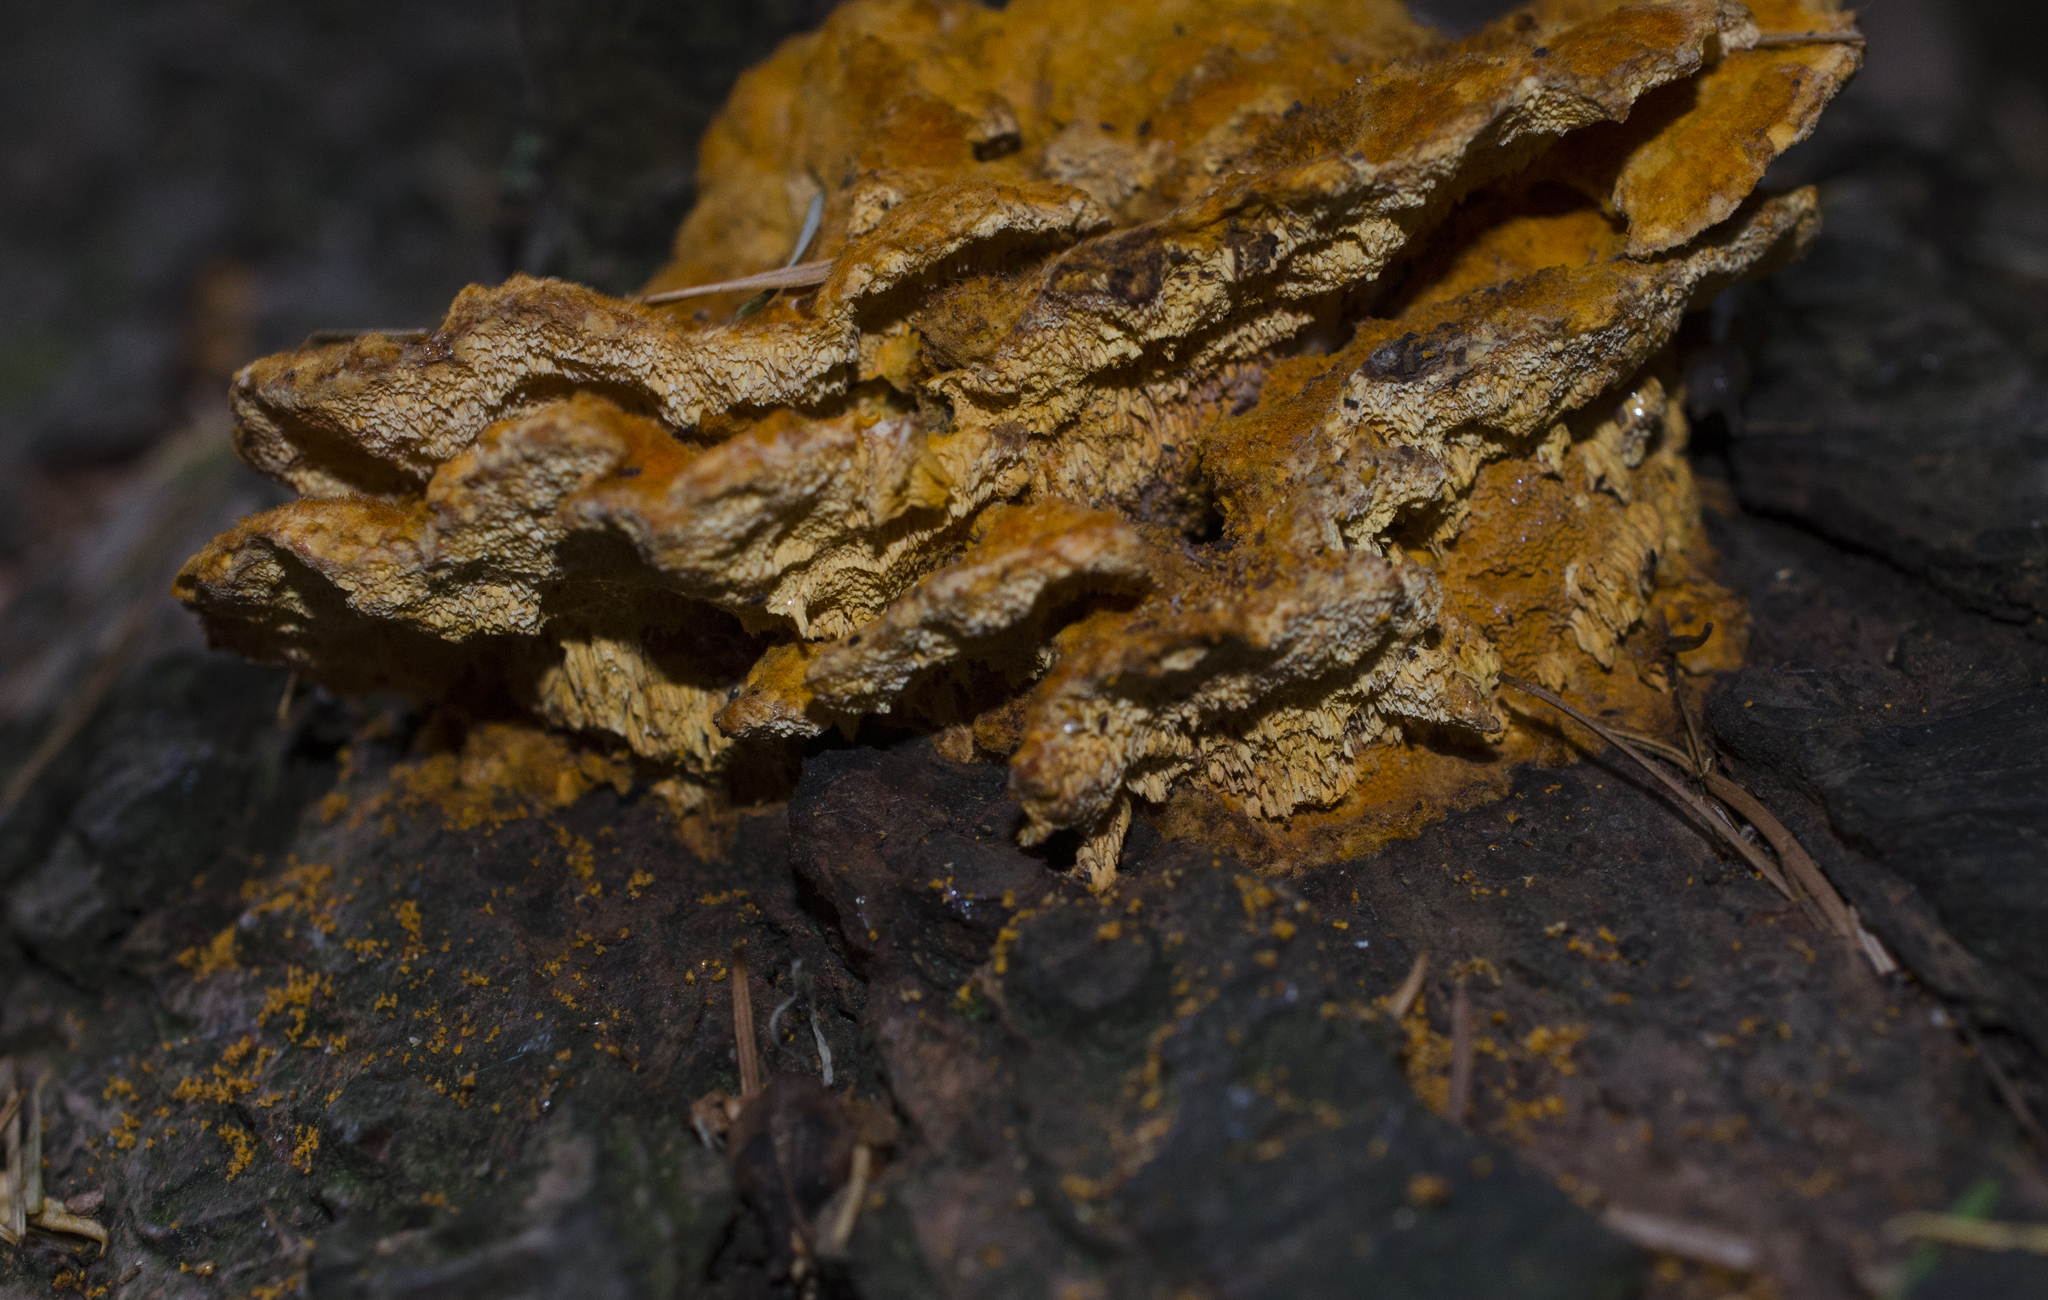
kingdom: Fungi
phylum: Basidiomycota
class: Agaricomycetes
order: Polyporales
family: Pycnoporellaceae
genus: Pycnoporellus
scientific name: Pycnoporellus fulgens
